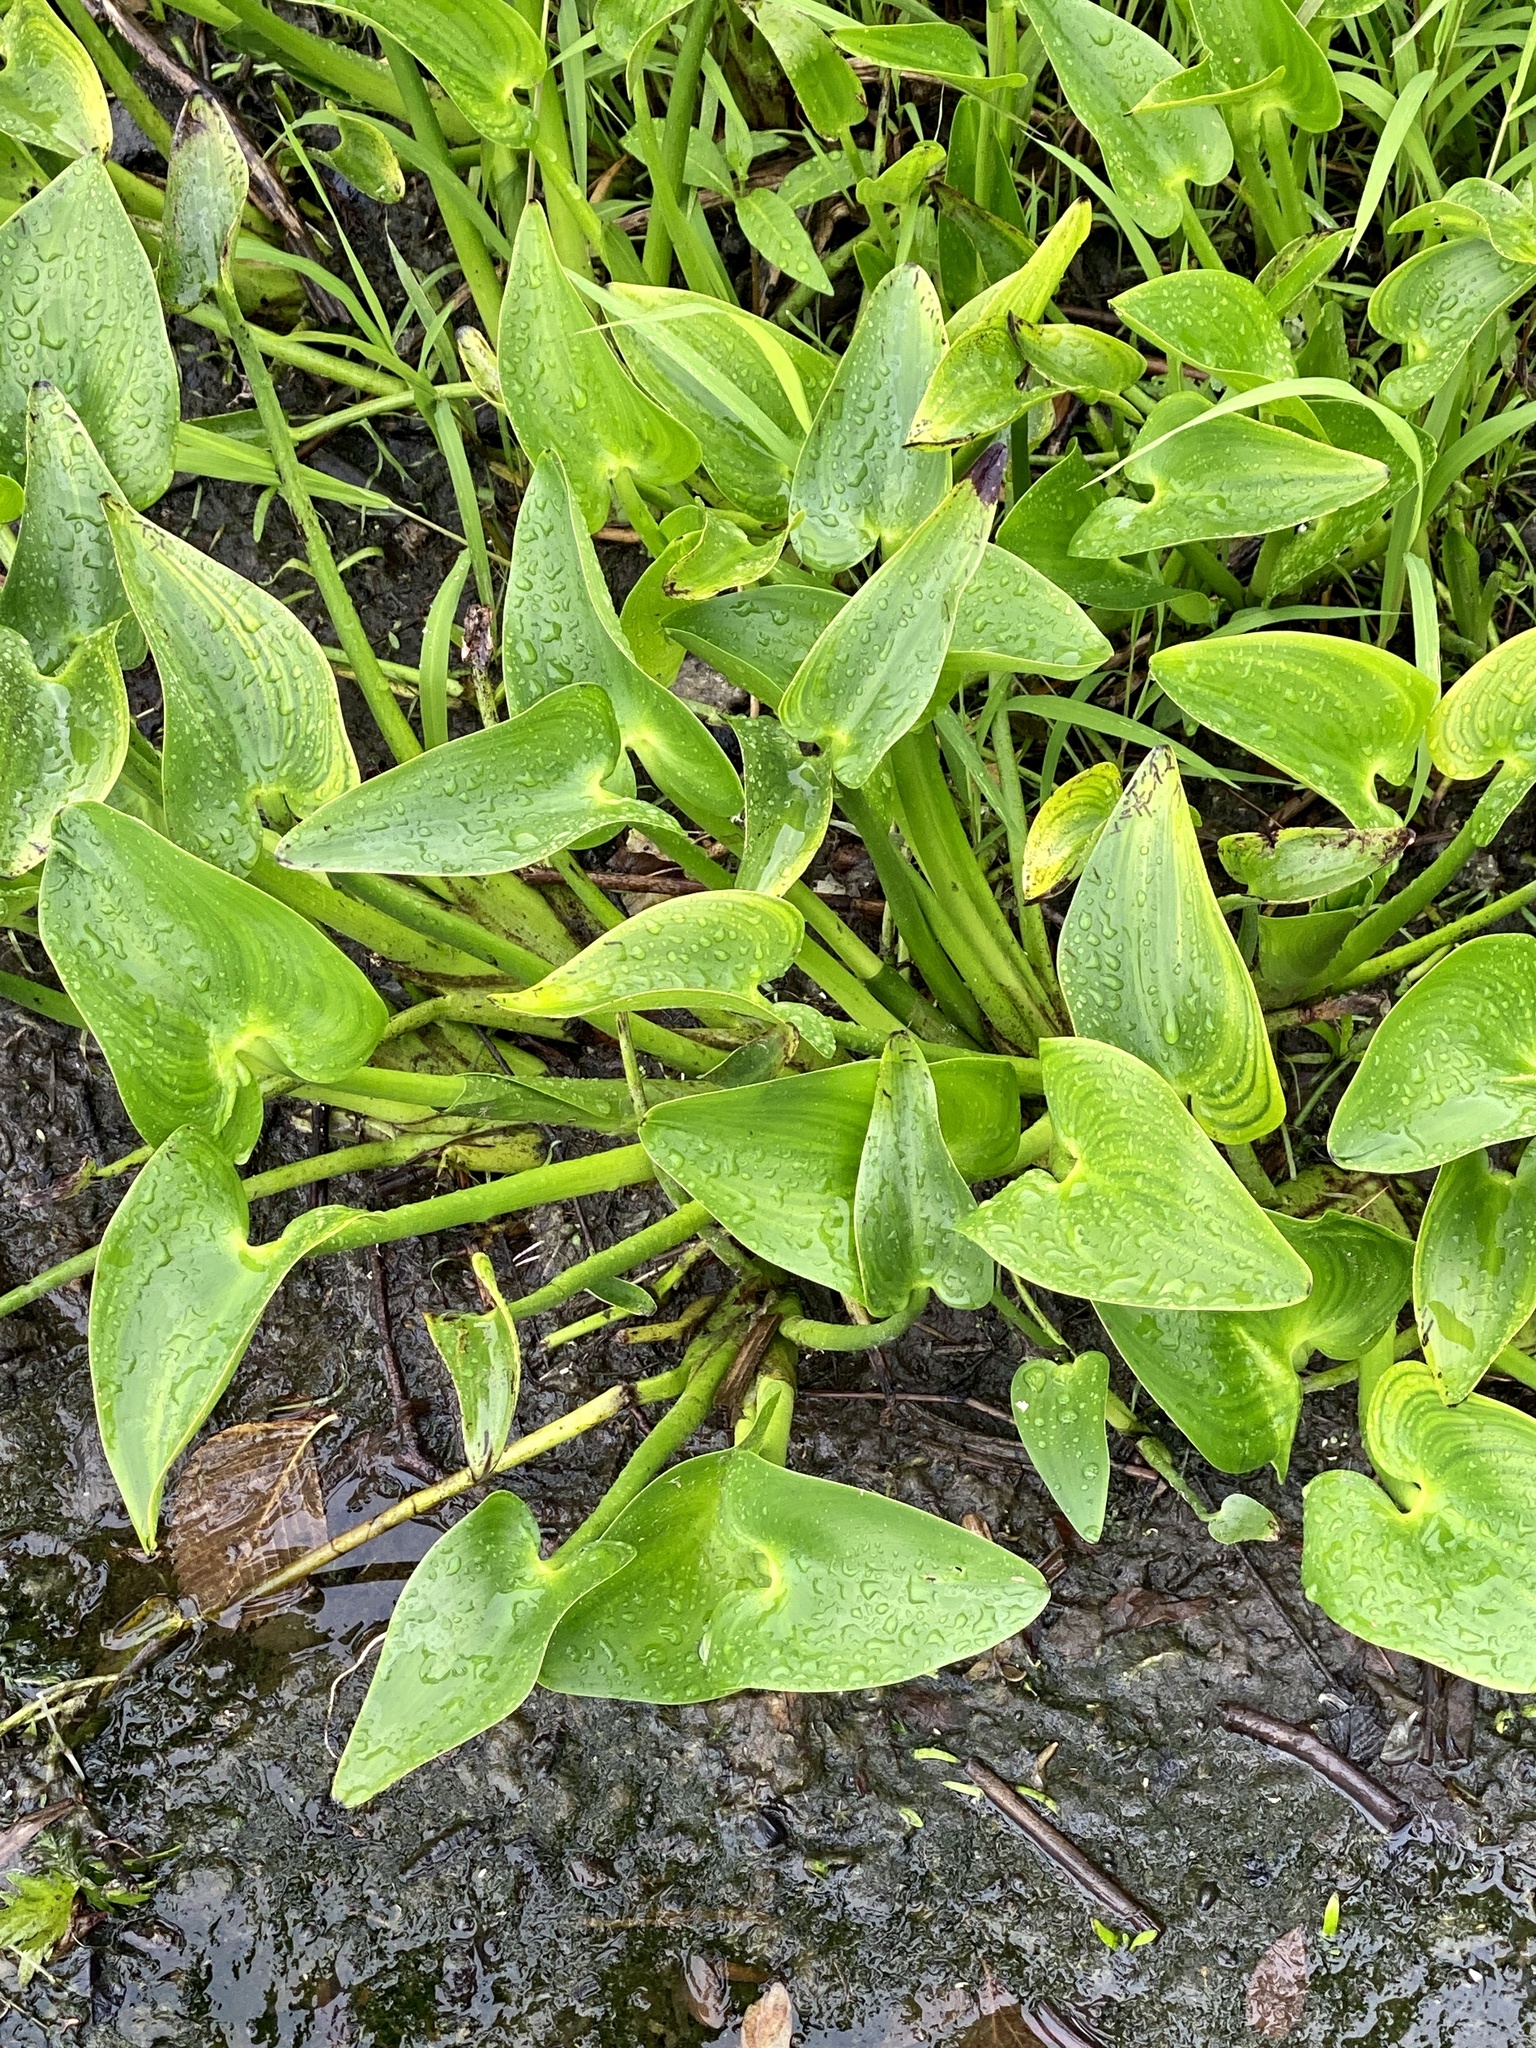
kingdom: Plantae
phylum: Tracheophyta
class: Liliopsida
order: Commelinales
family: Pontederiaceae
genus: Pontederia
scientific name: Pontederia cordata
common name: Pickerelweed
